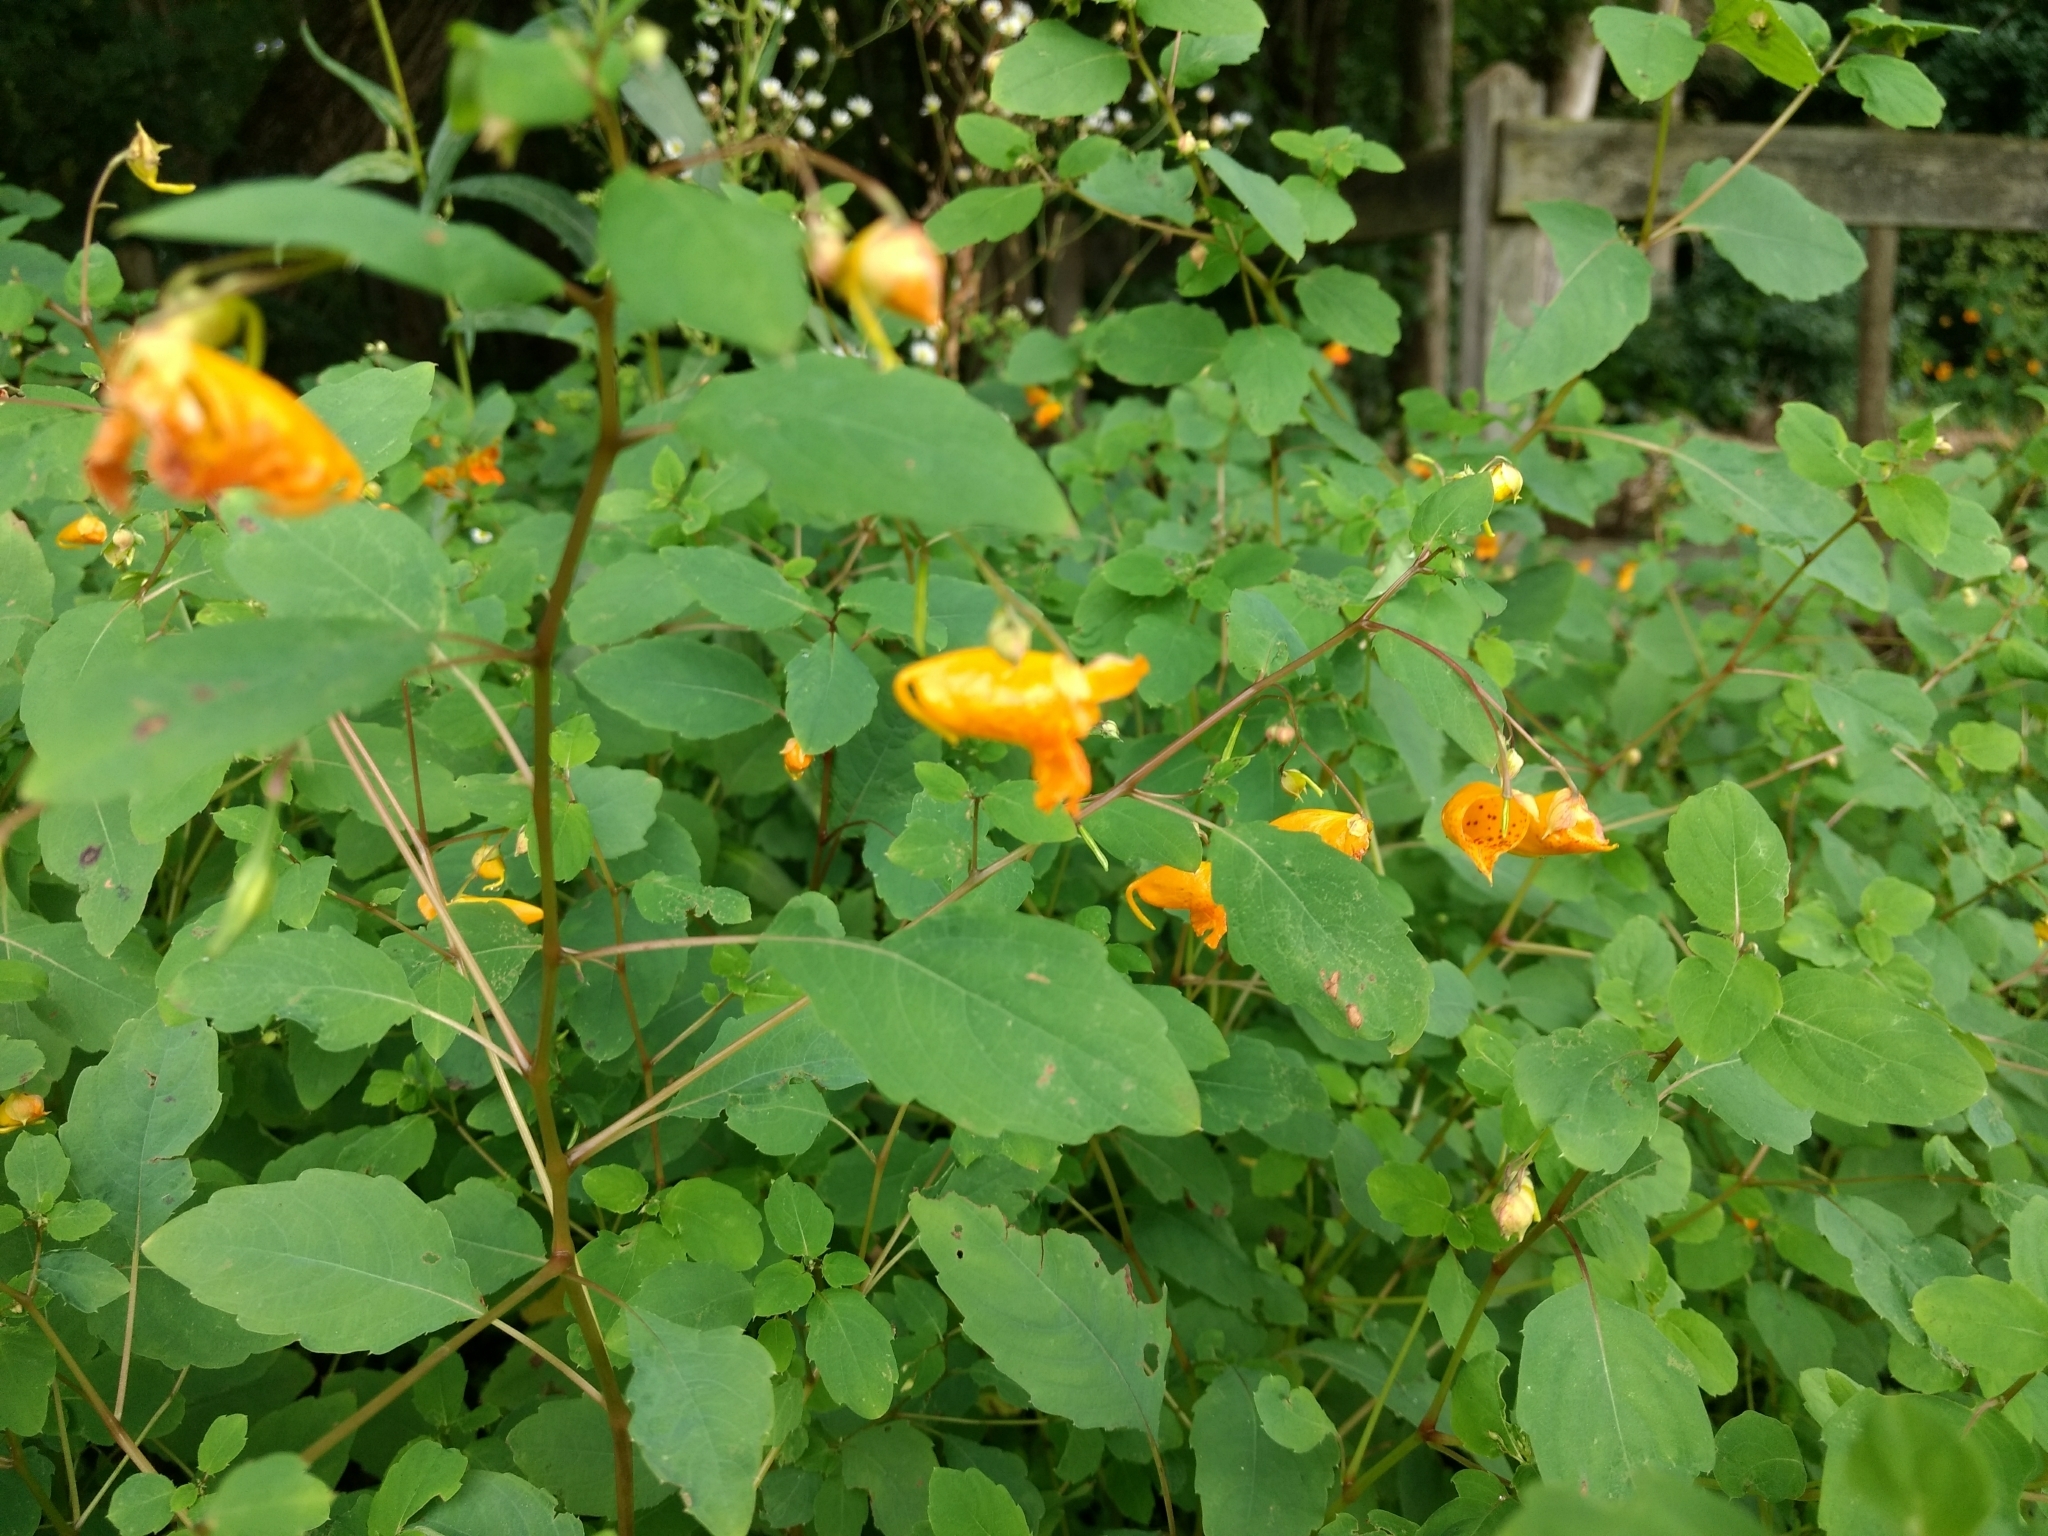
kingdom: Plantae
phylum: Tracheophyta
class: Magnoliopsida
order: Ericales
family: Balsaminaceae
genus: Impatiens
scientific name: Impatiens capensis
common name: Orange balsam
